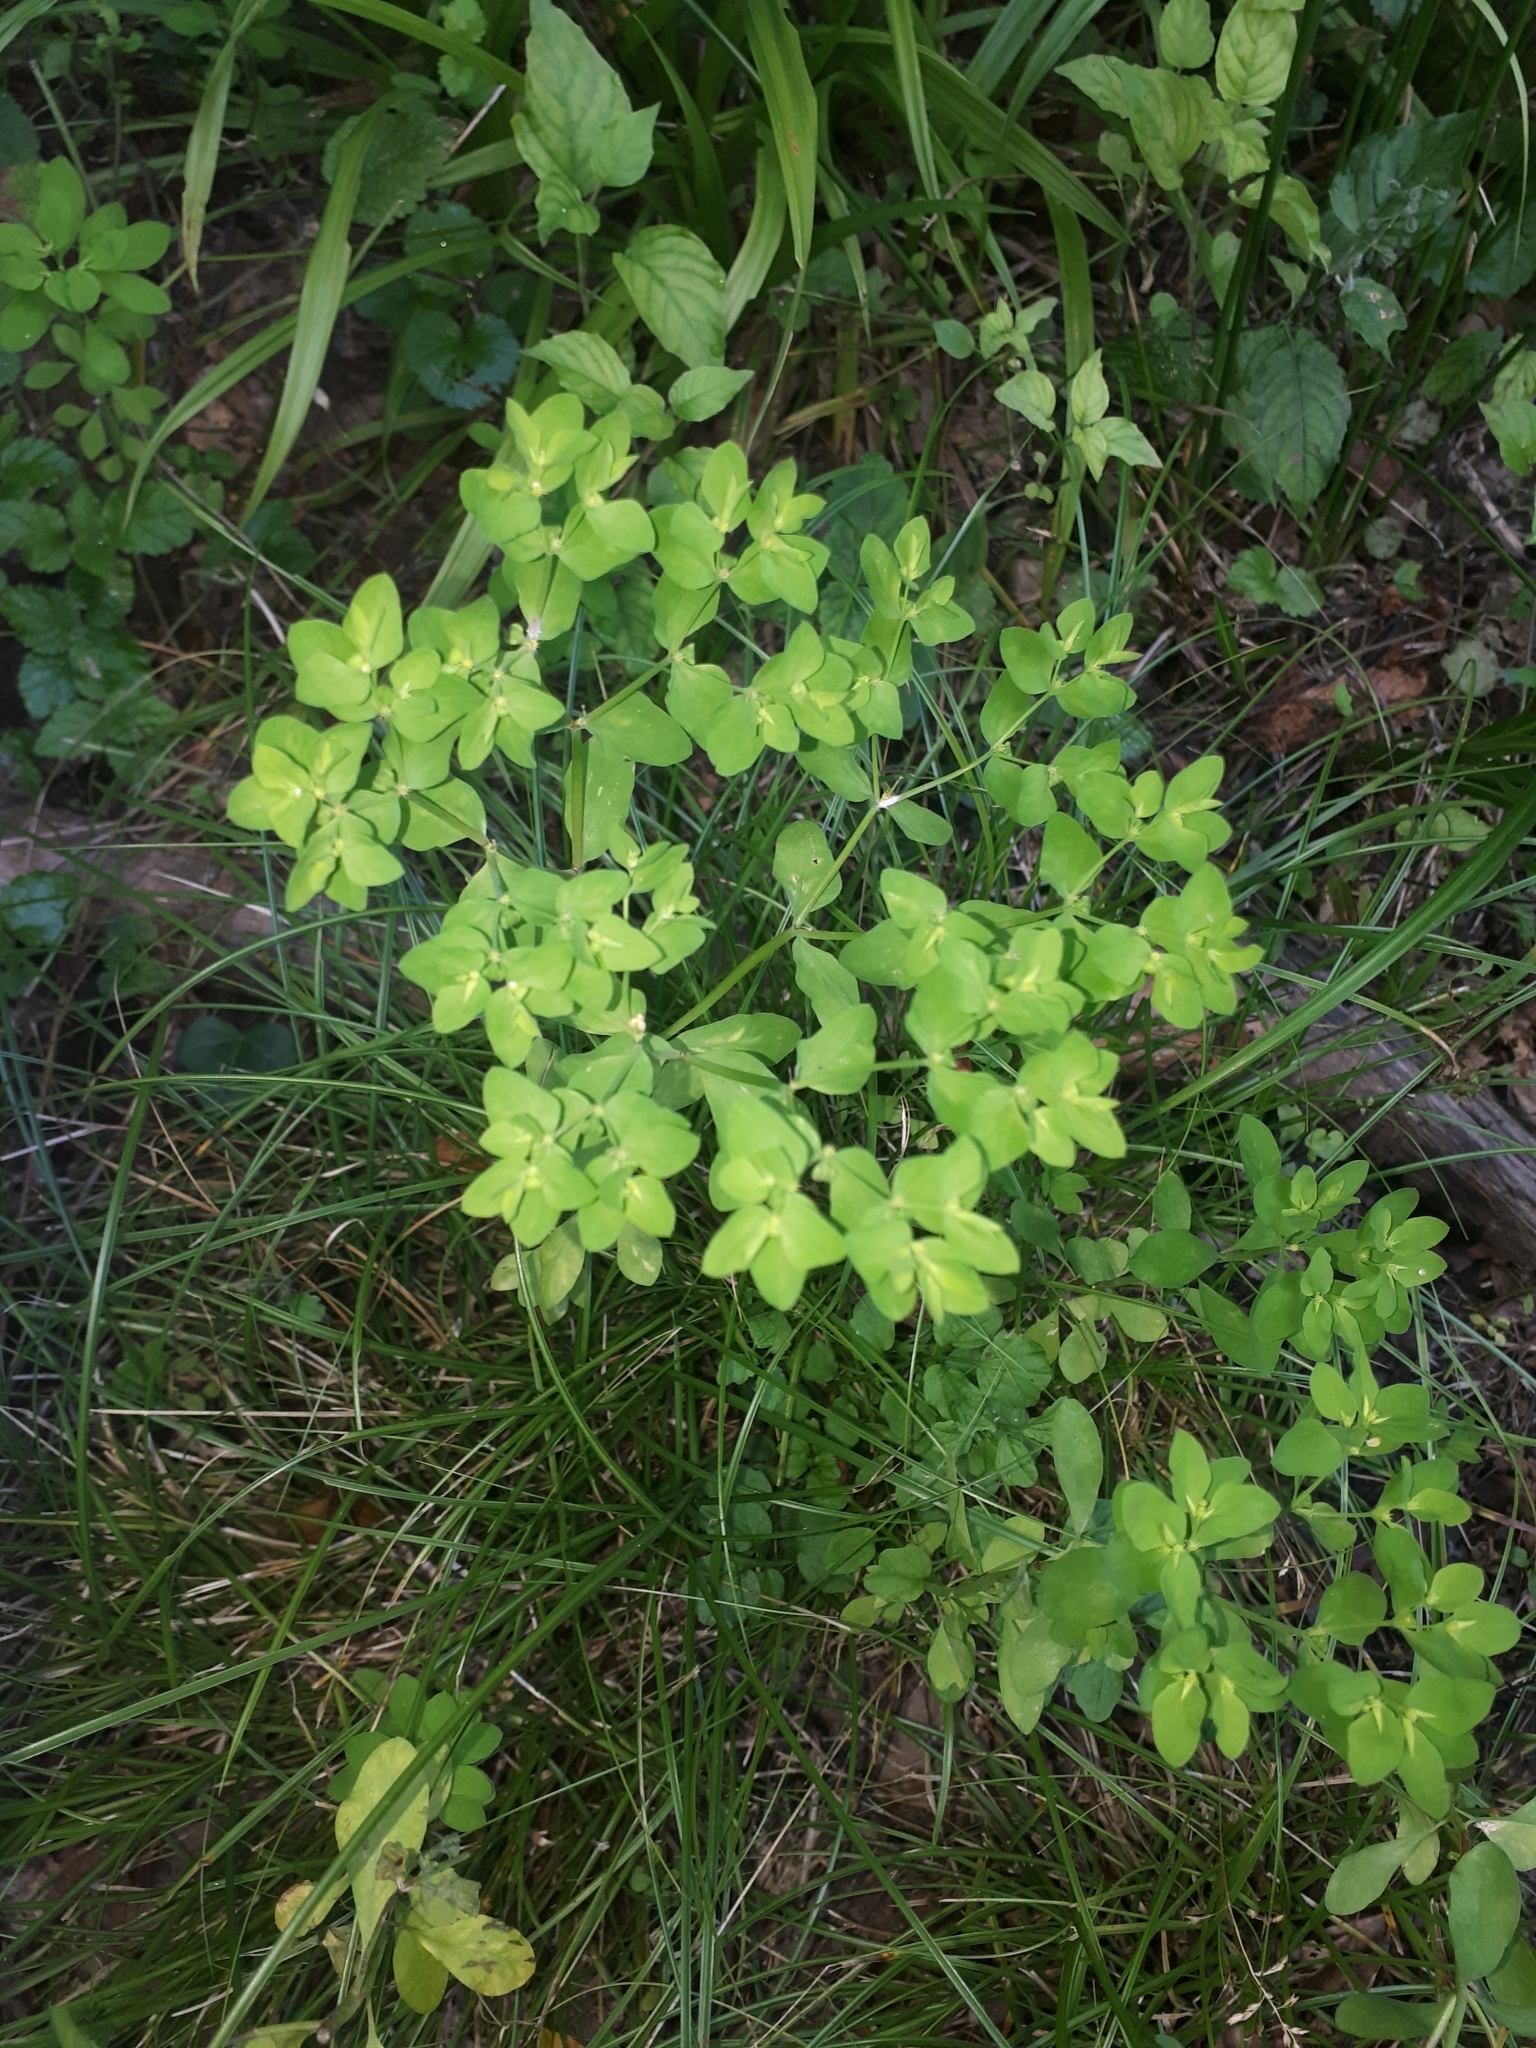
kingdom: Plantae
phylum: Tracheophyta
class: Magnoliopsida
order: Malpighiales
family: Euphorbiaceae
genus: Euphorbia
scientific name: Euphorbia peplus
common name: Petty spurge
